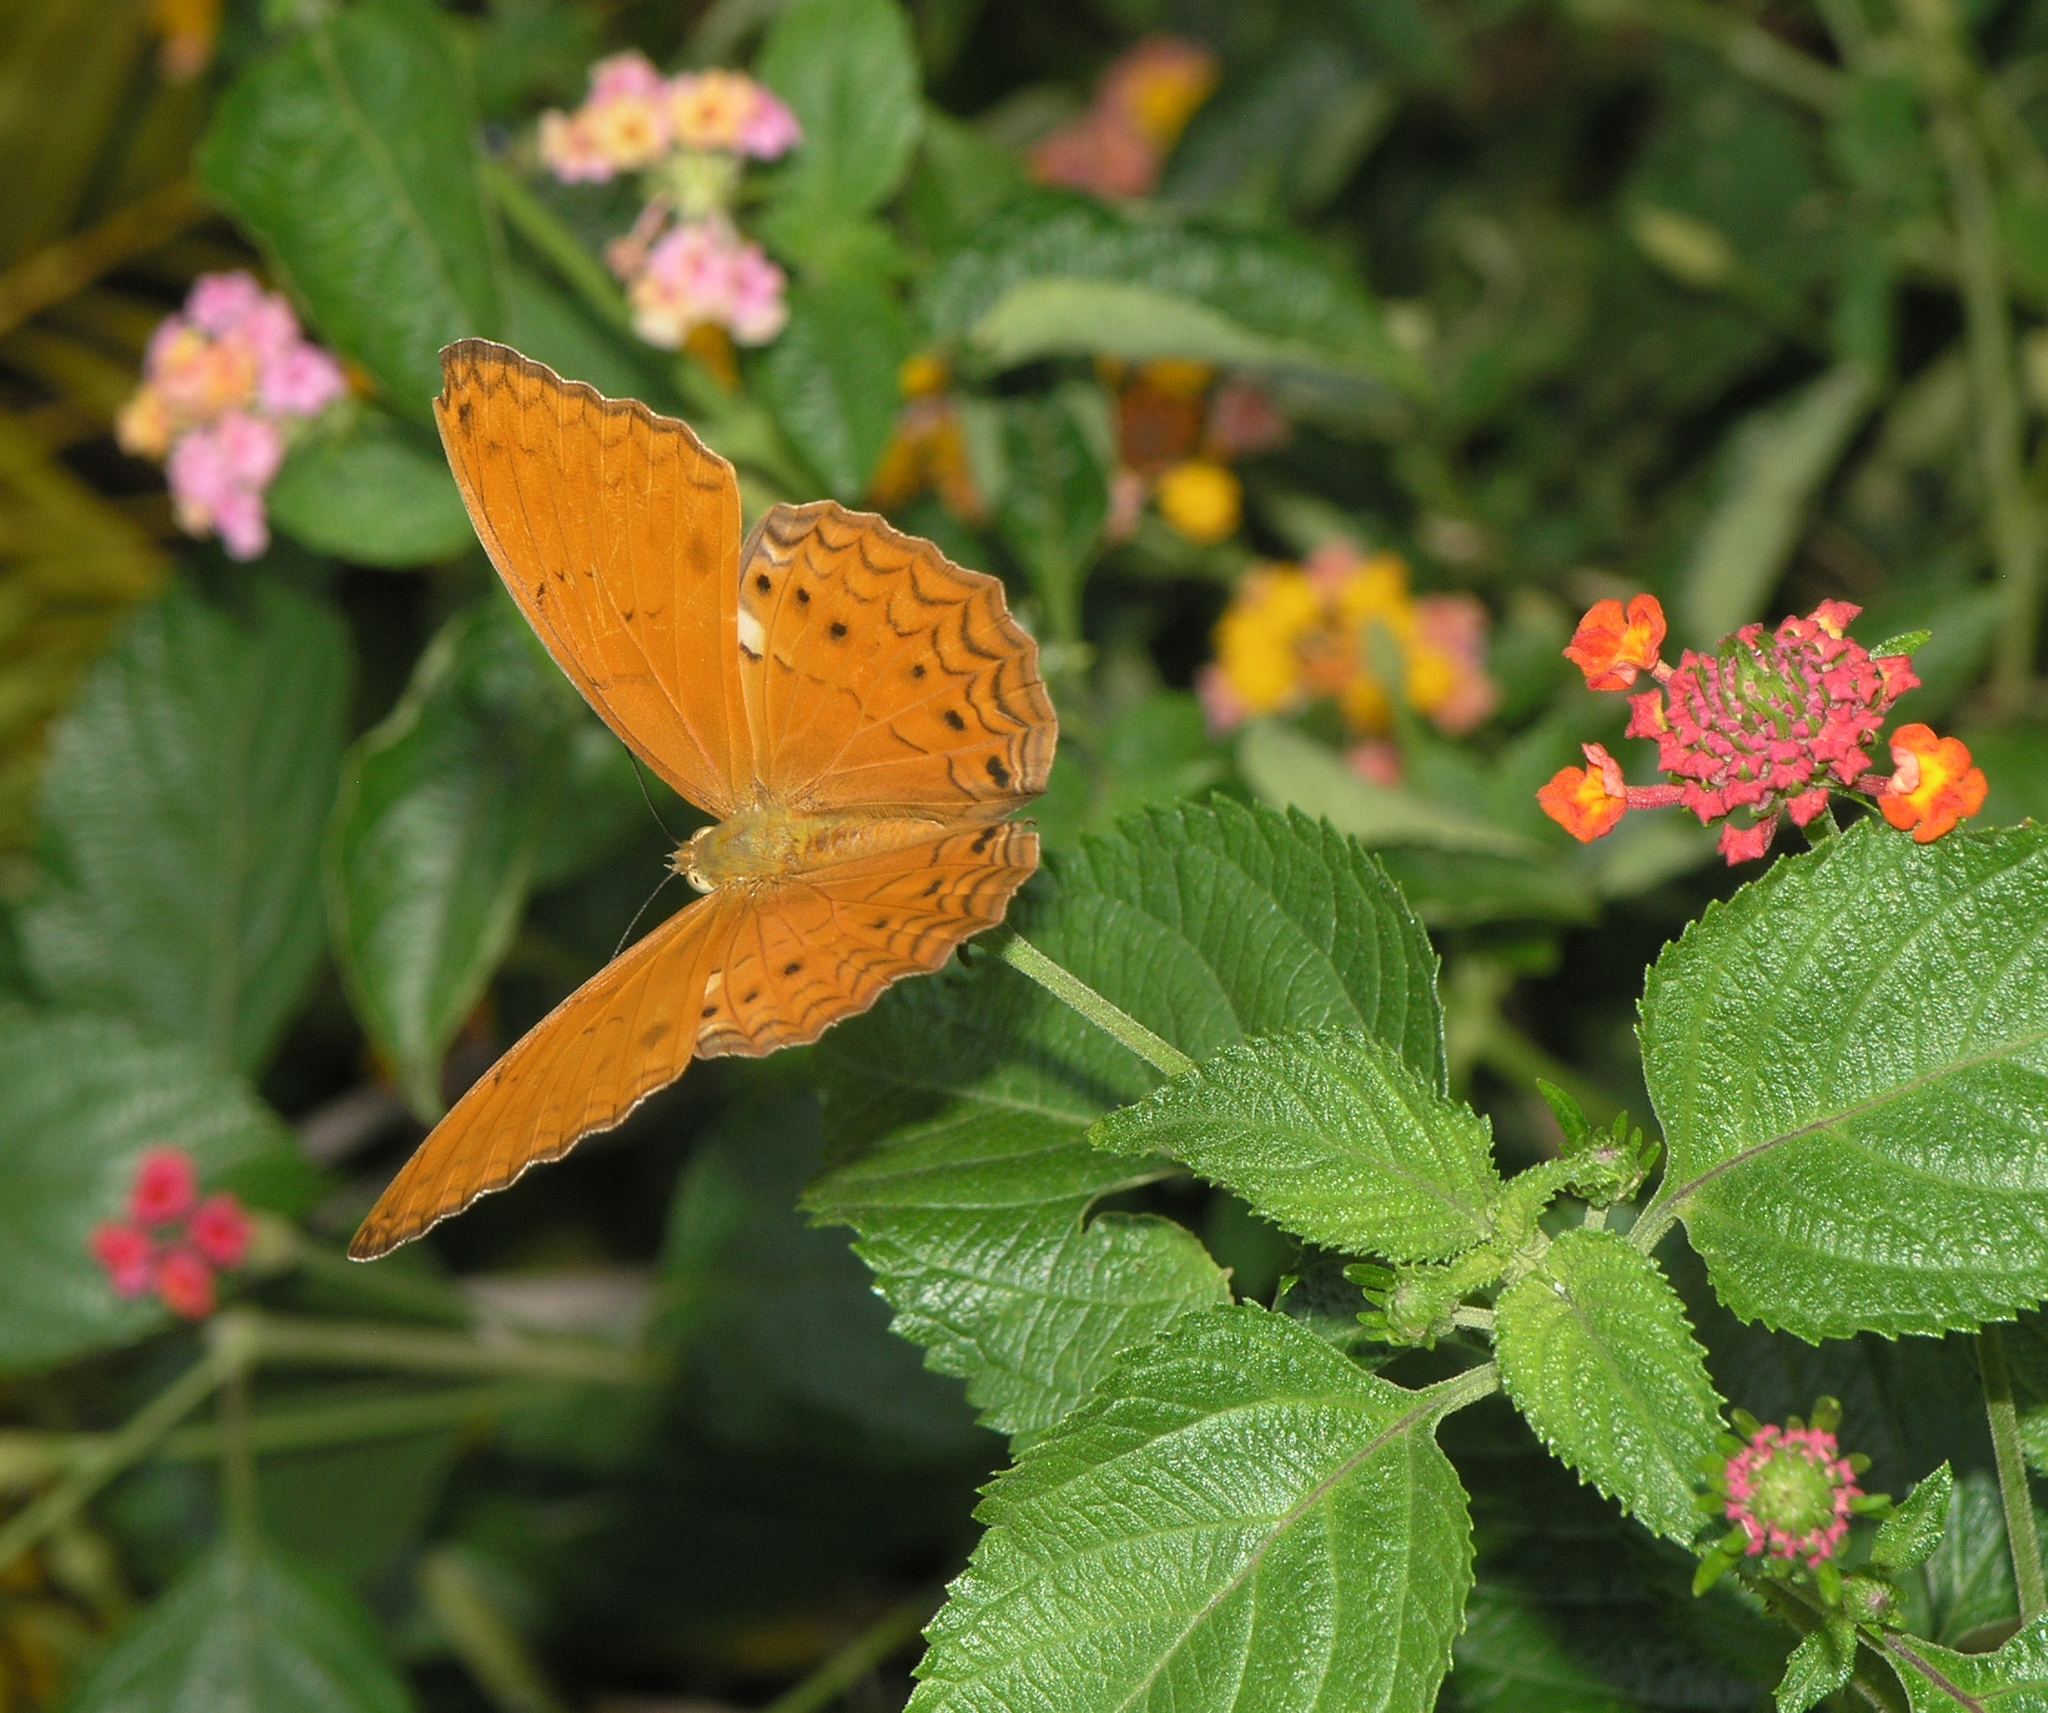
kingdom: Animalia
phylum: Arthropoda
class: Insecta
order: Lepidoptera
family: Nymphalidae
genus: Cirrochroa
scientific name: Cirrochroa tyche
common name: Common yeoman
